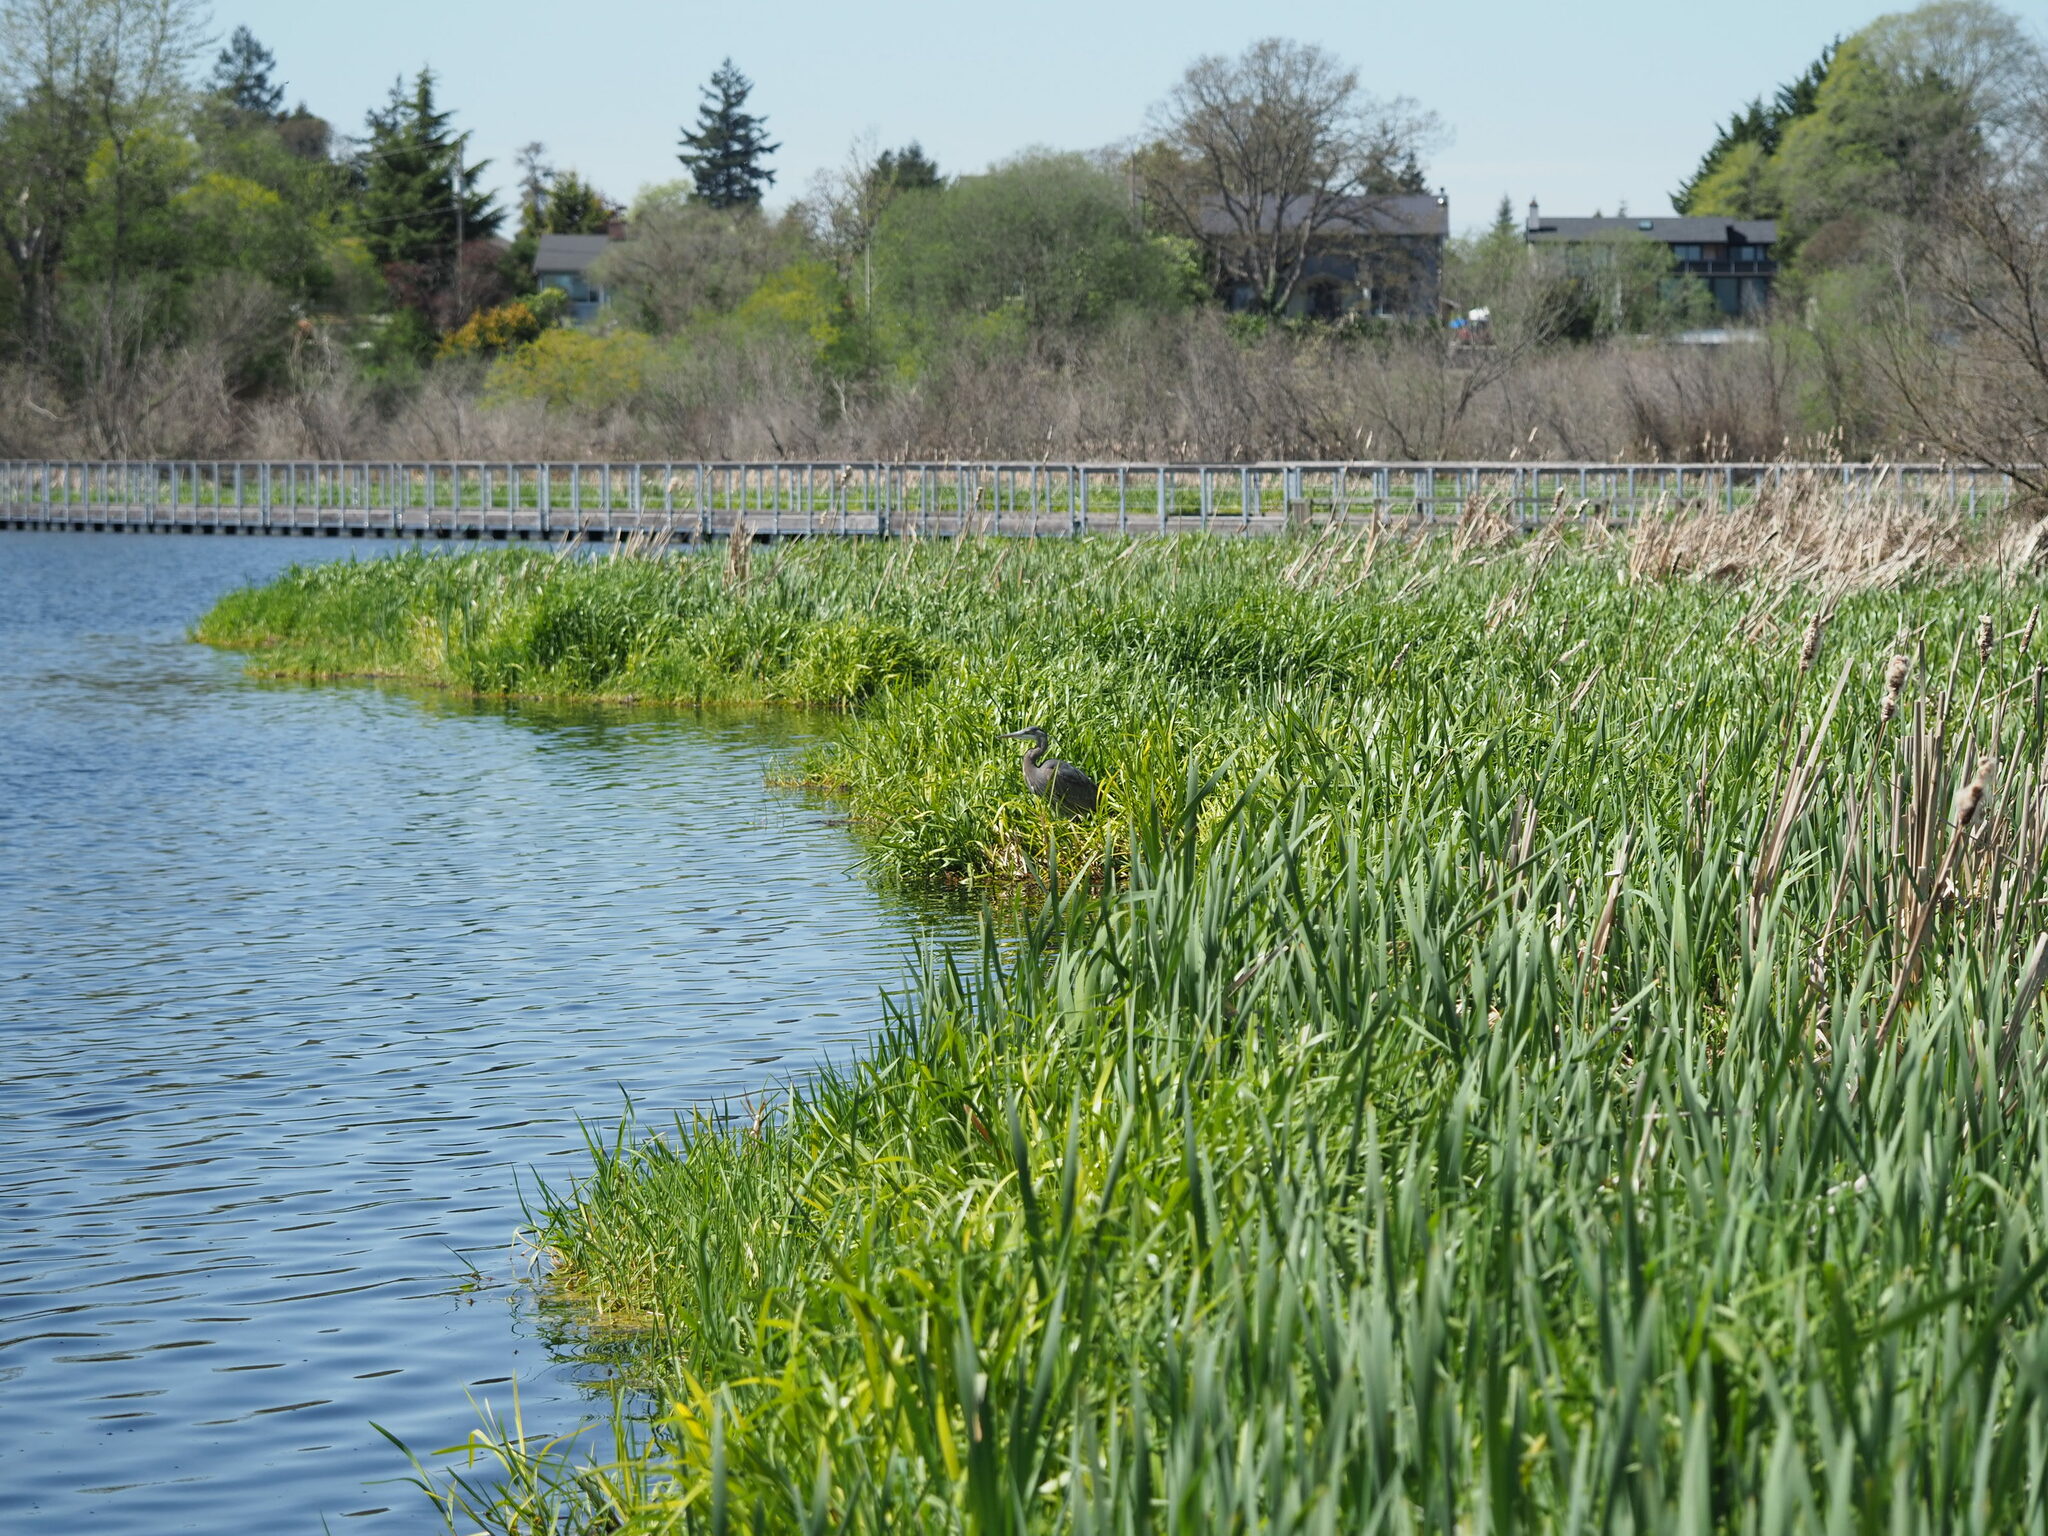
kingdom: Animalia
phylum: Chordata
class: Aves
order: Pelecaniformes
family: Ardeidae
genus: Ardea
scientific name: Ardea herodias
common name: Great blue heron
